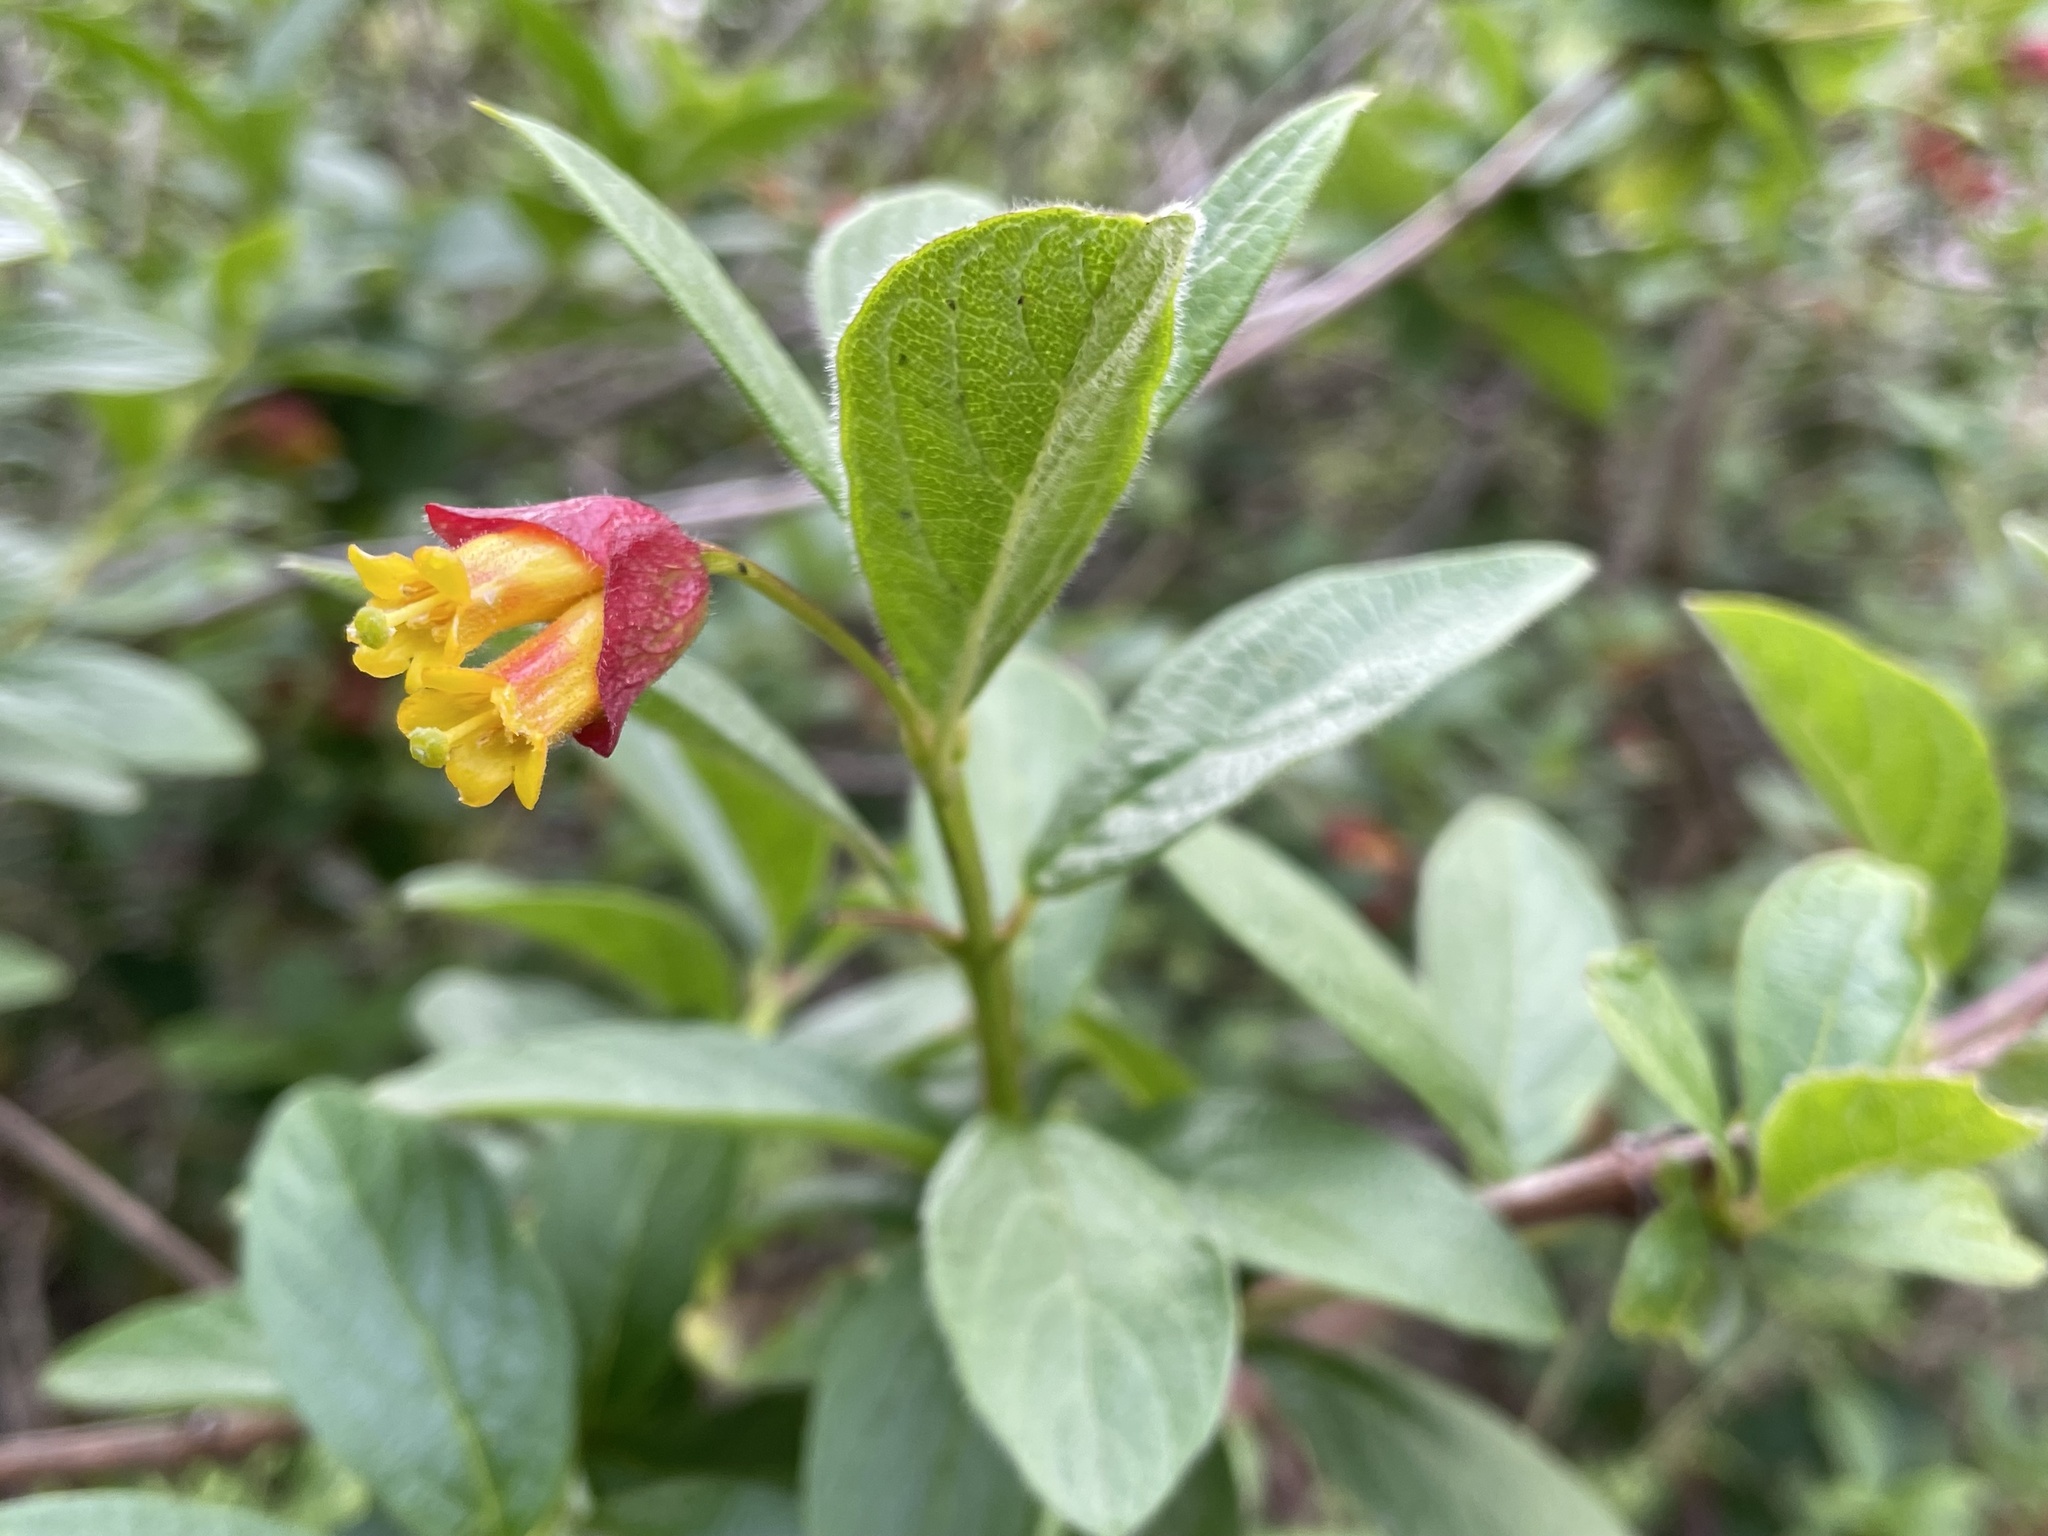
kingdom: Plantae
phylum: Tracheophyta
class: Magnoliopsida
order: Dipsacales
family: Caprifoliaceae
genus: Lonicera
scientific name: Lonicera involucrata
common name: Californian honeysuckle
